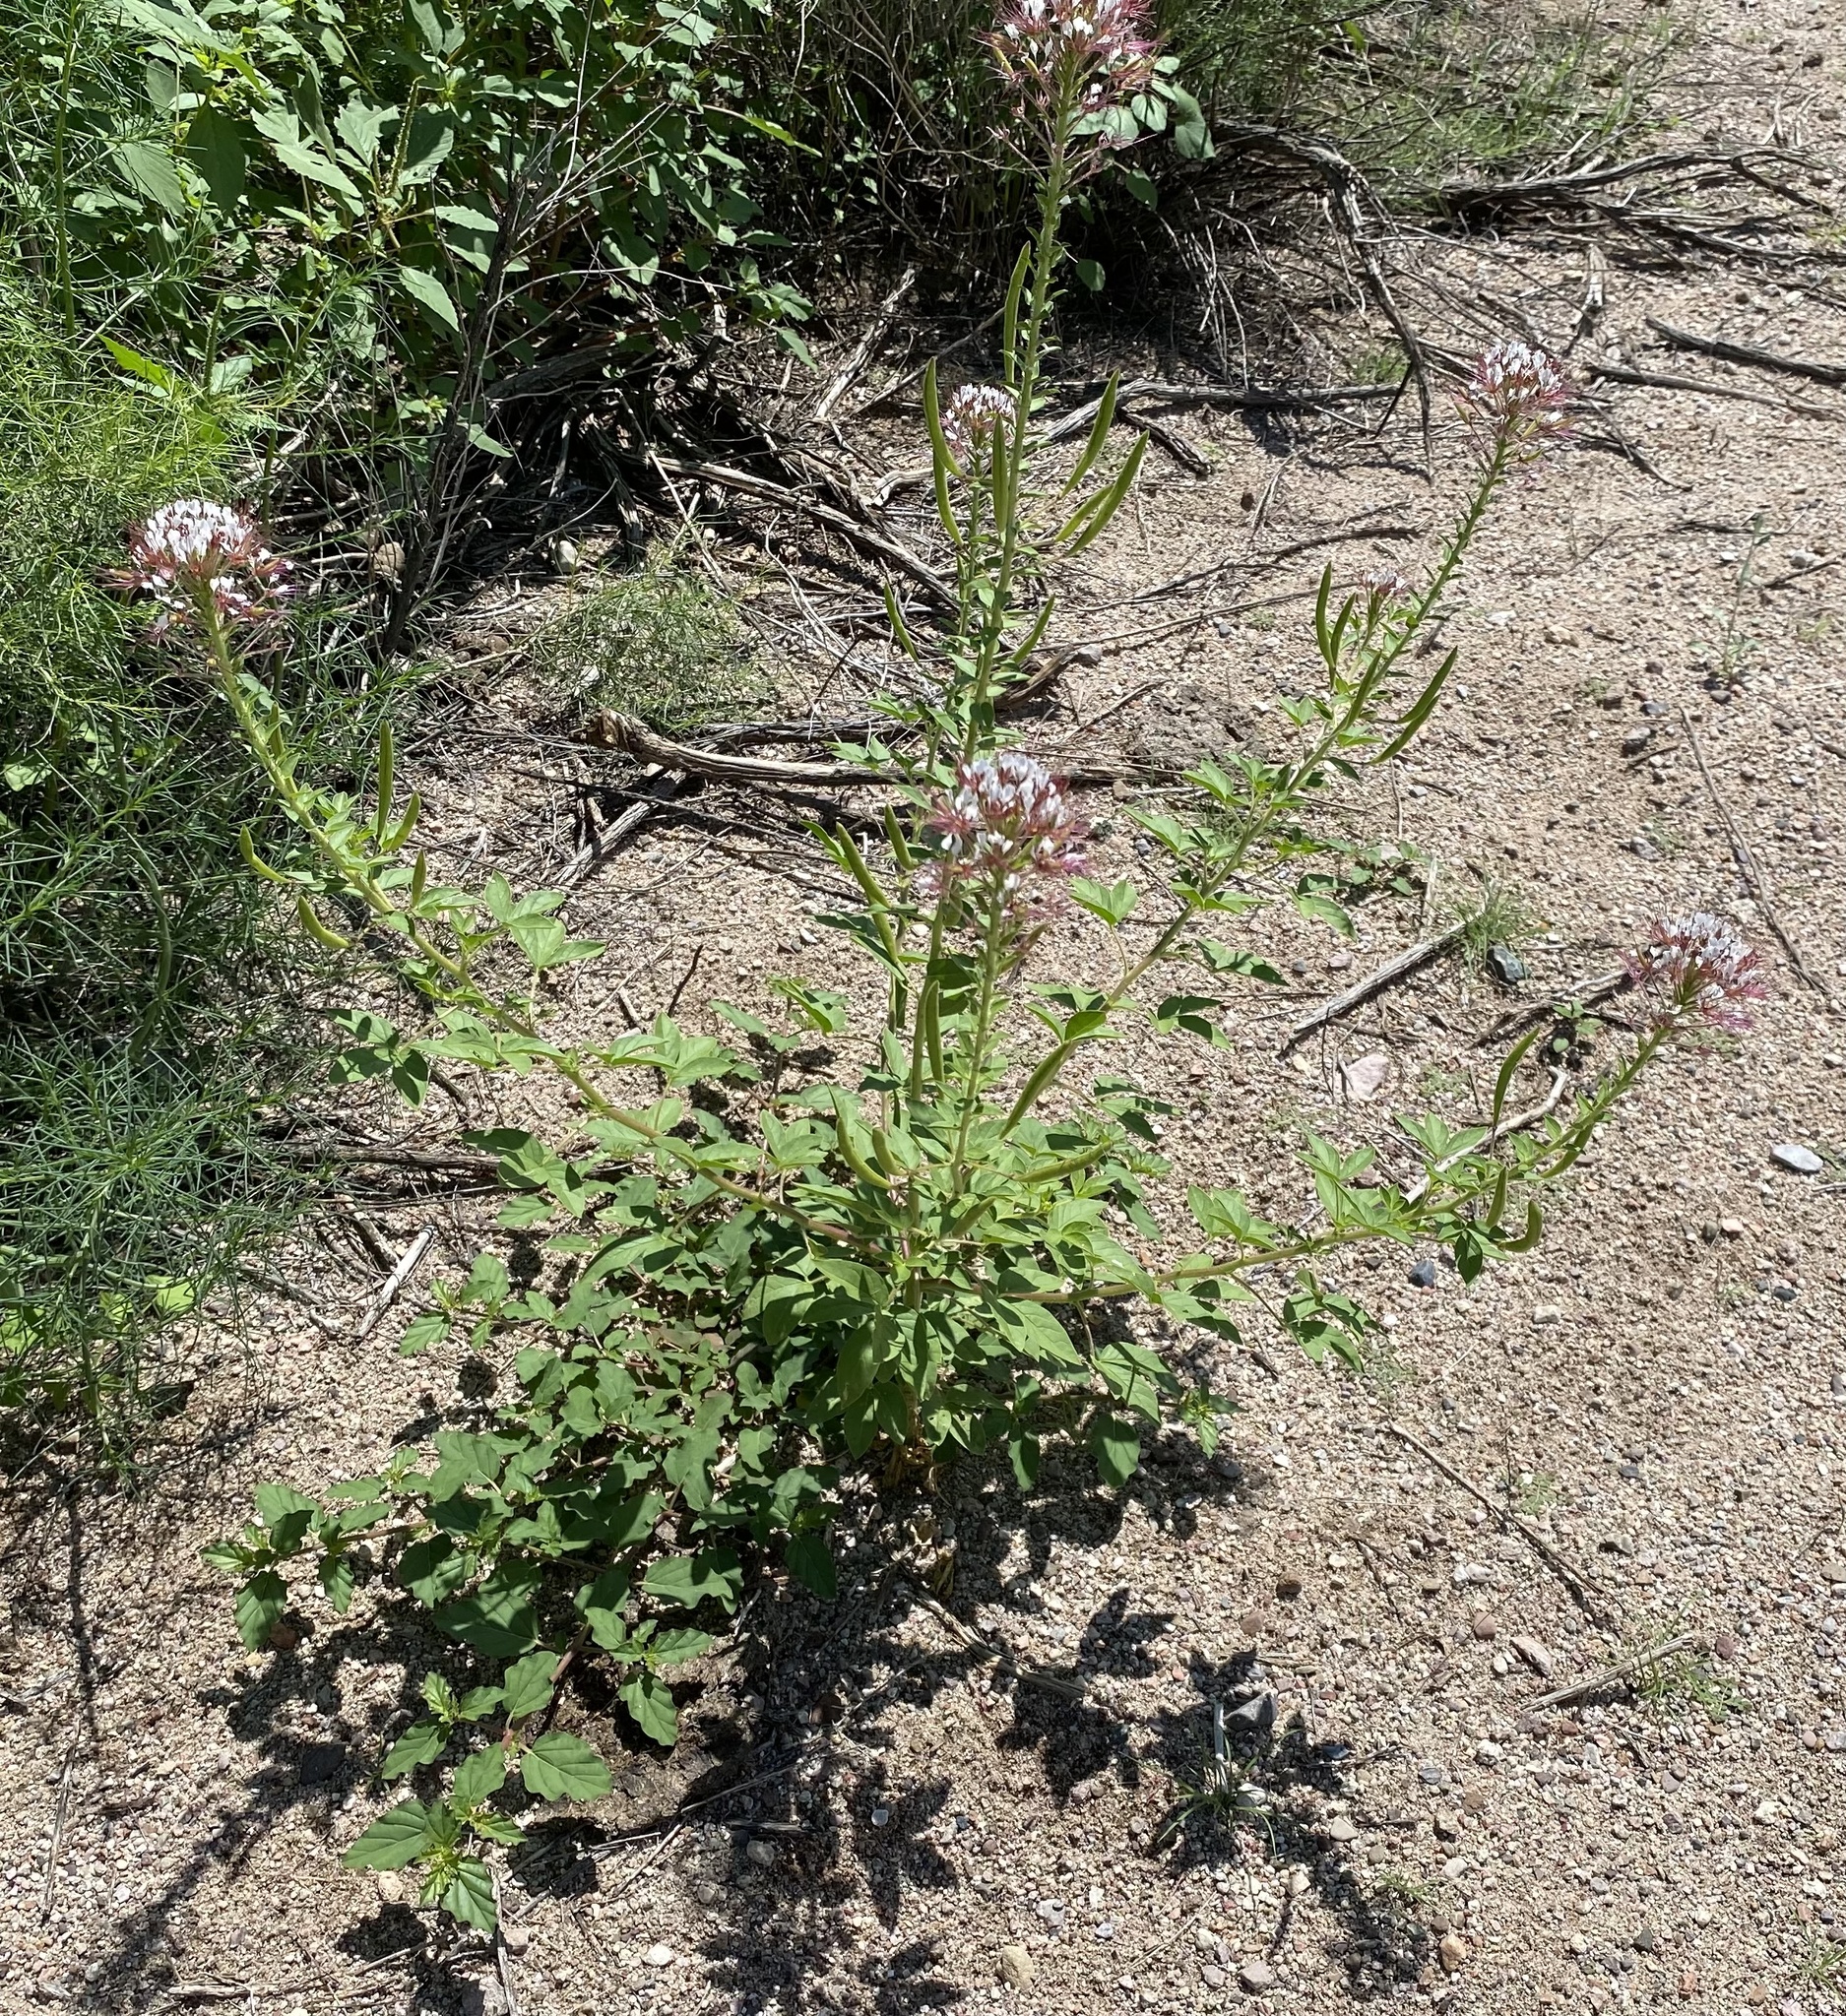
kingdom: Plantae
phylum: Tracheophyta
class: Magnoliopsida
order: Brassicales
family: Cleomaceae
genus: Polanisia
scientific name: Polanisia dodecandra
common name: Clammyweed
